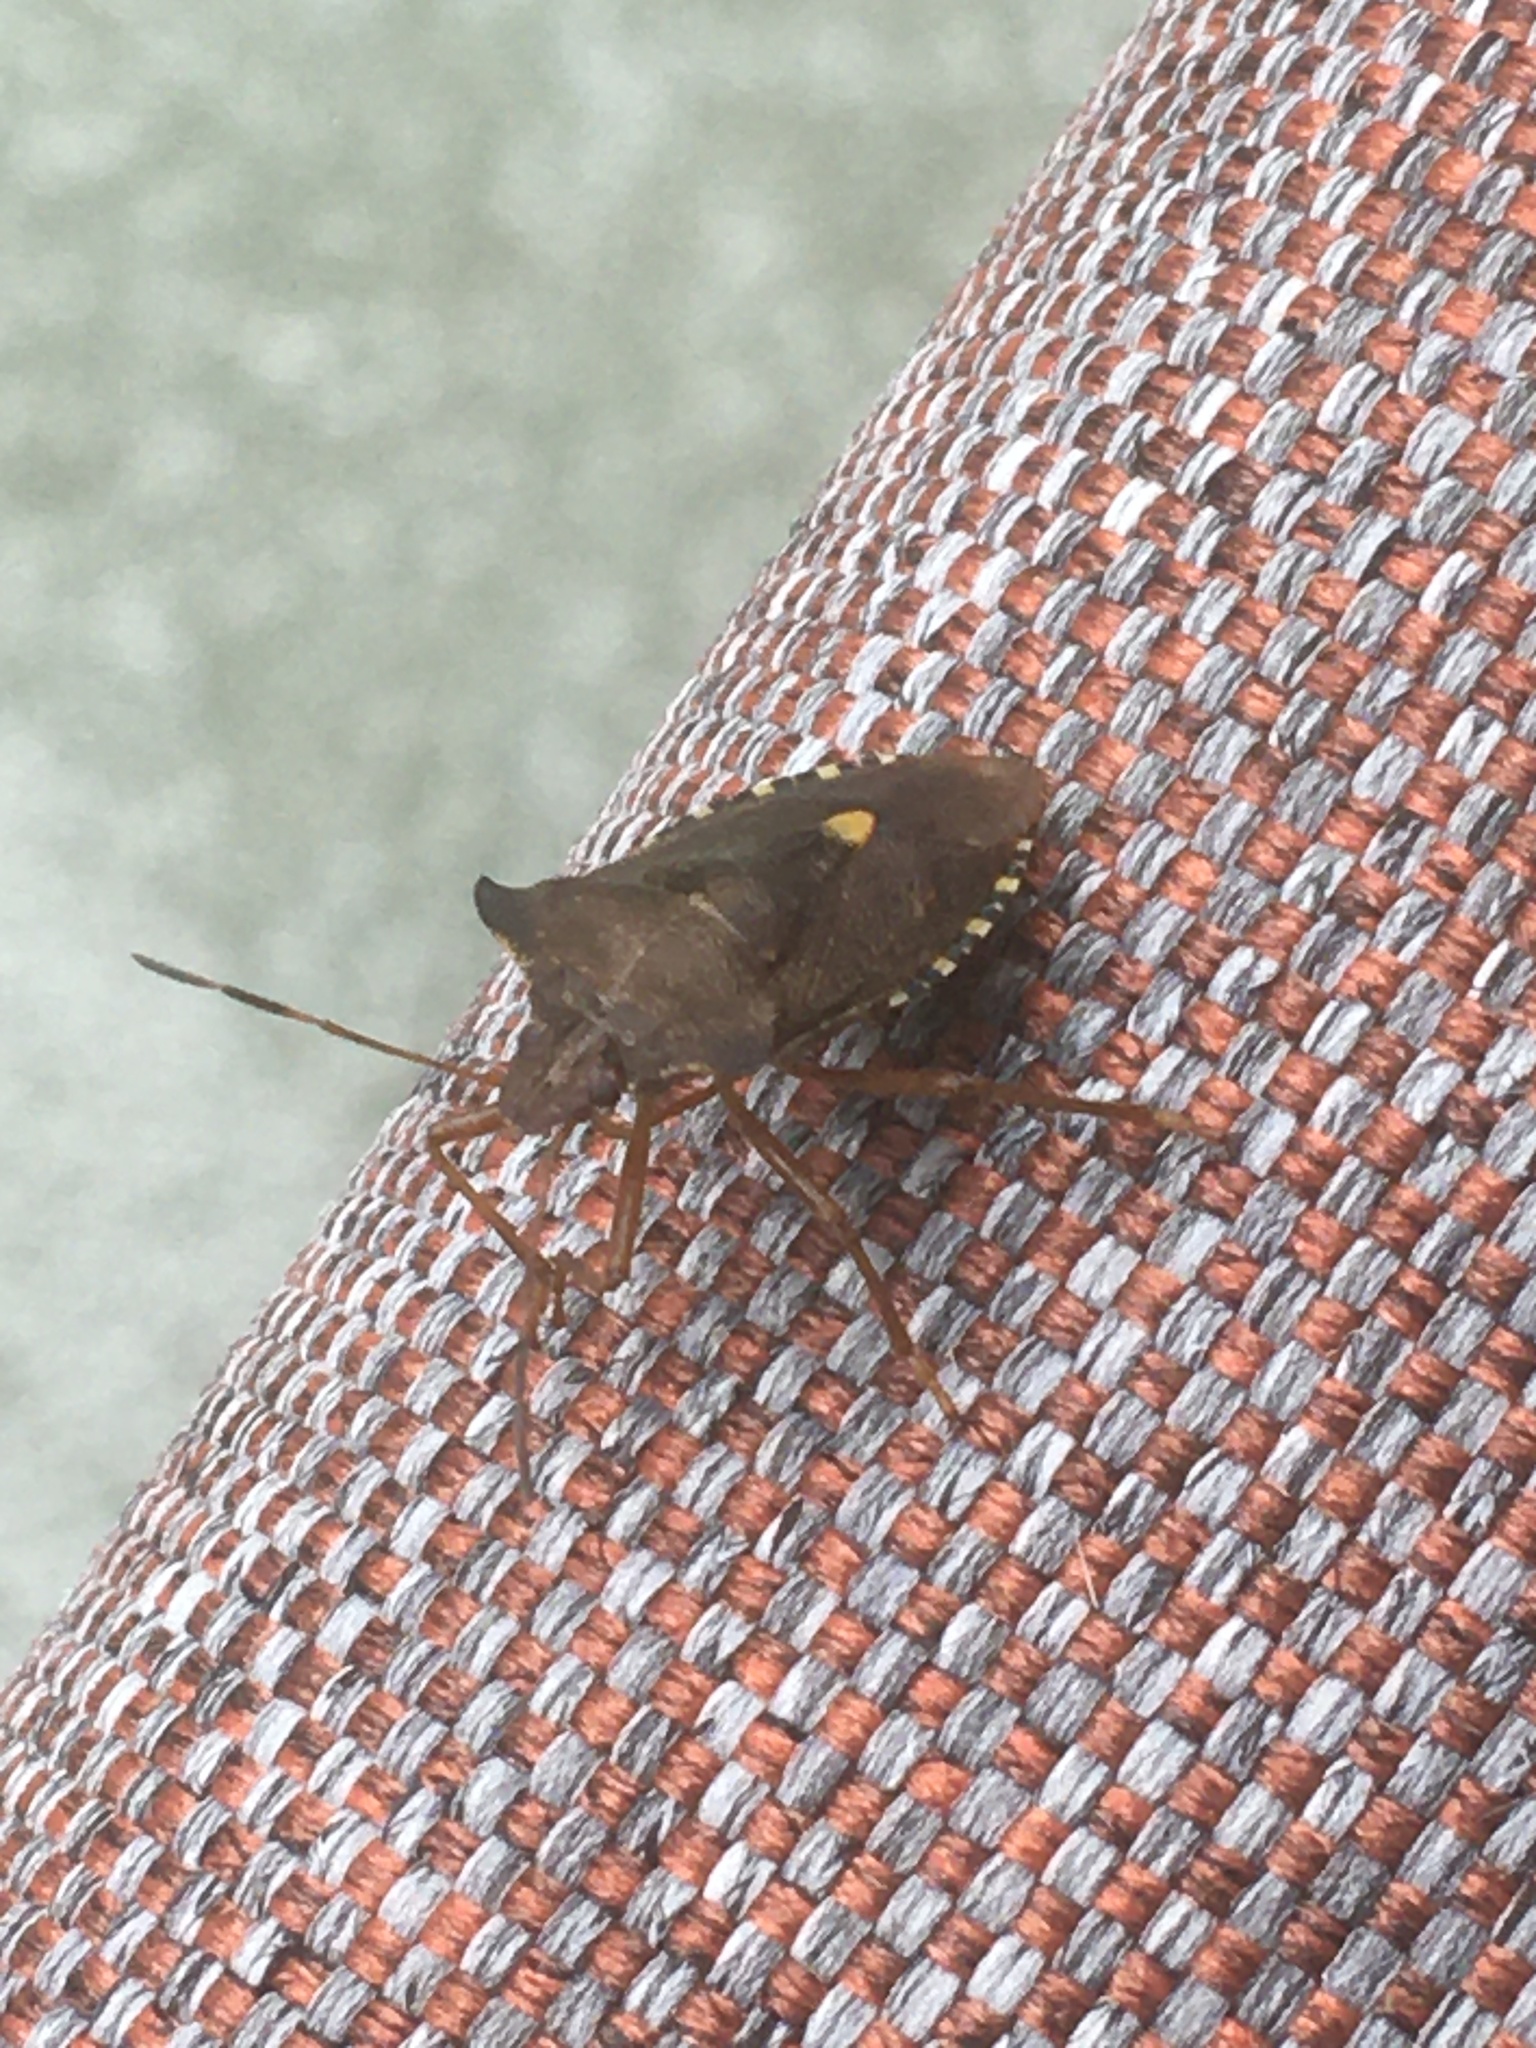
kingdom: Animalia
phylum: Arthropoda
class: Insecta
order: Hemiptera
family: Pentatomidae
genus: Pentatoma
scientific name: Pentatoma rufipes
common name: Forest bug
